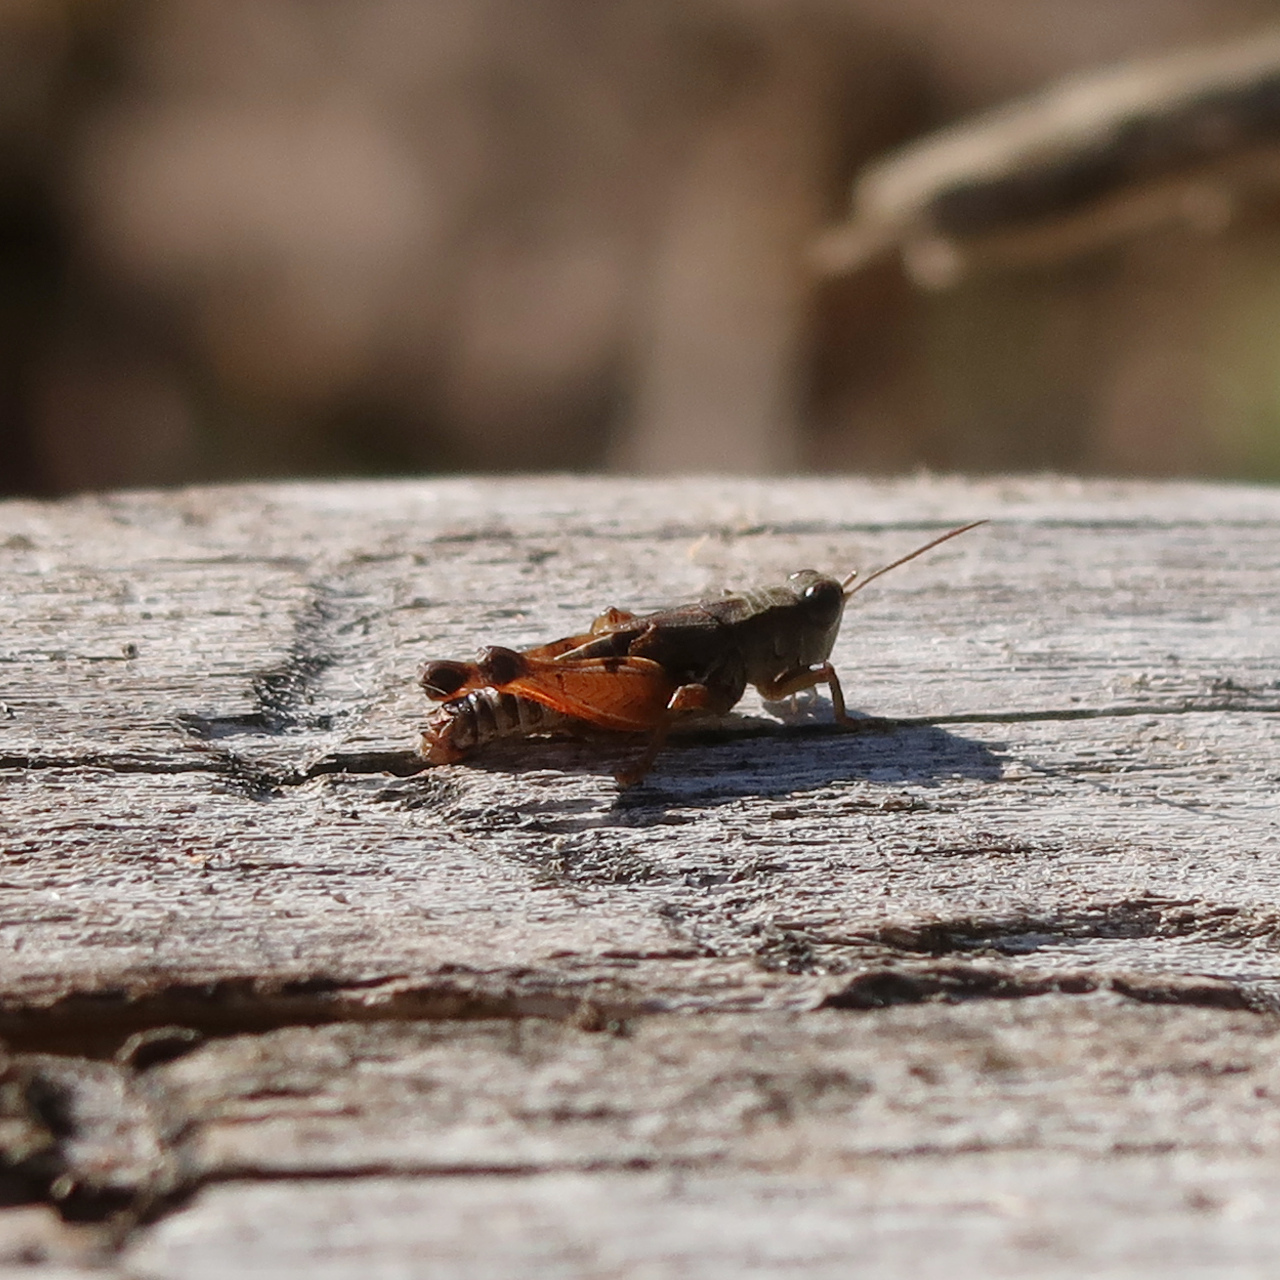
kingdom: Animalia
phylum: Arthropoda
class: Insecta
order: Orthoptera
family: Acrididae
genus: Phaulacridium
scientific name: Phaulacridium vittatum
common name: Wingless grasshopper
